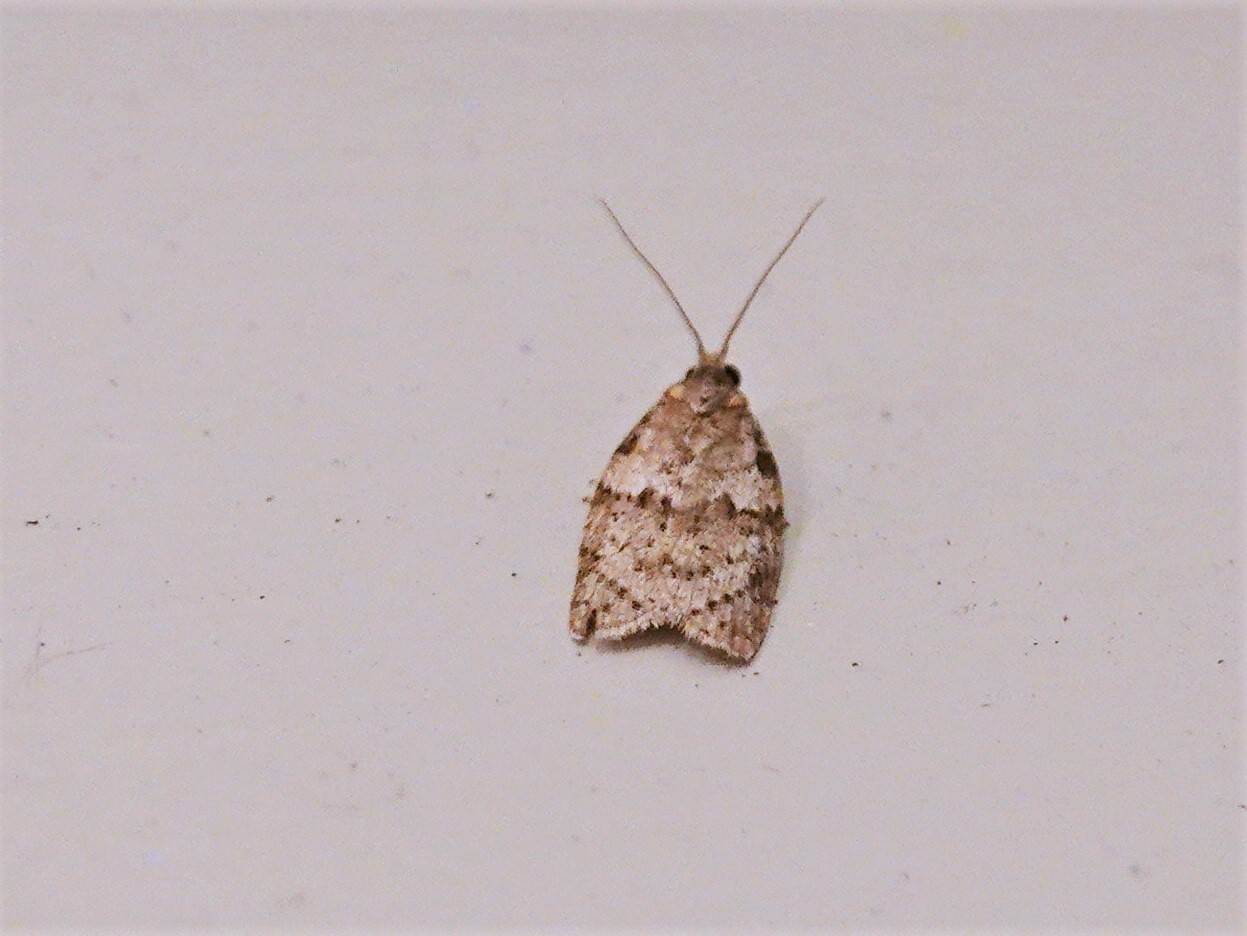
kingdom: Animalia
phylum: Arthropoda
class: Insecta
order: Lepidoptera
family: Tortricidae
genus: Isotenes
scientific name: Isotenes miserana
